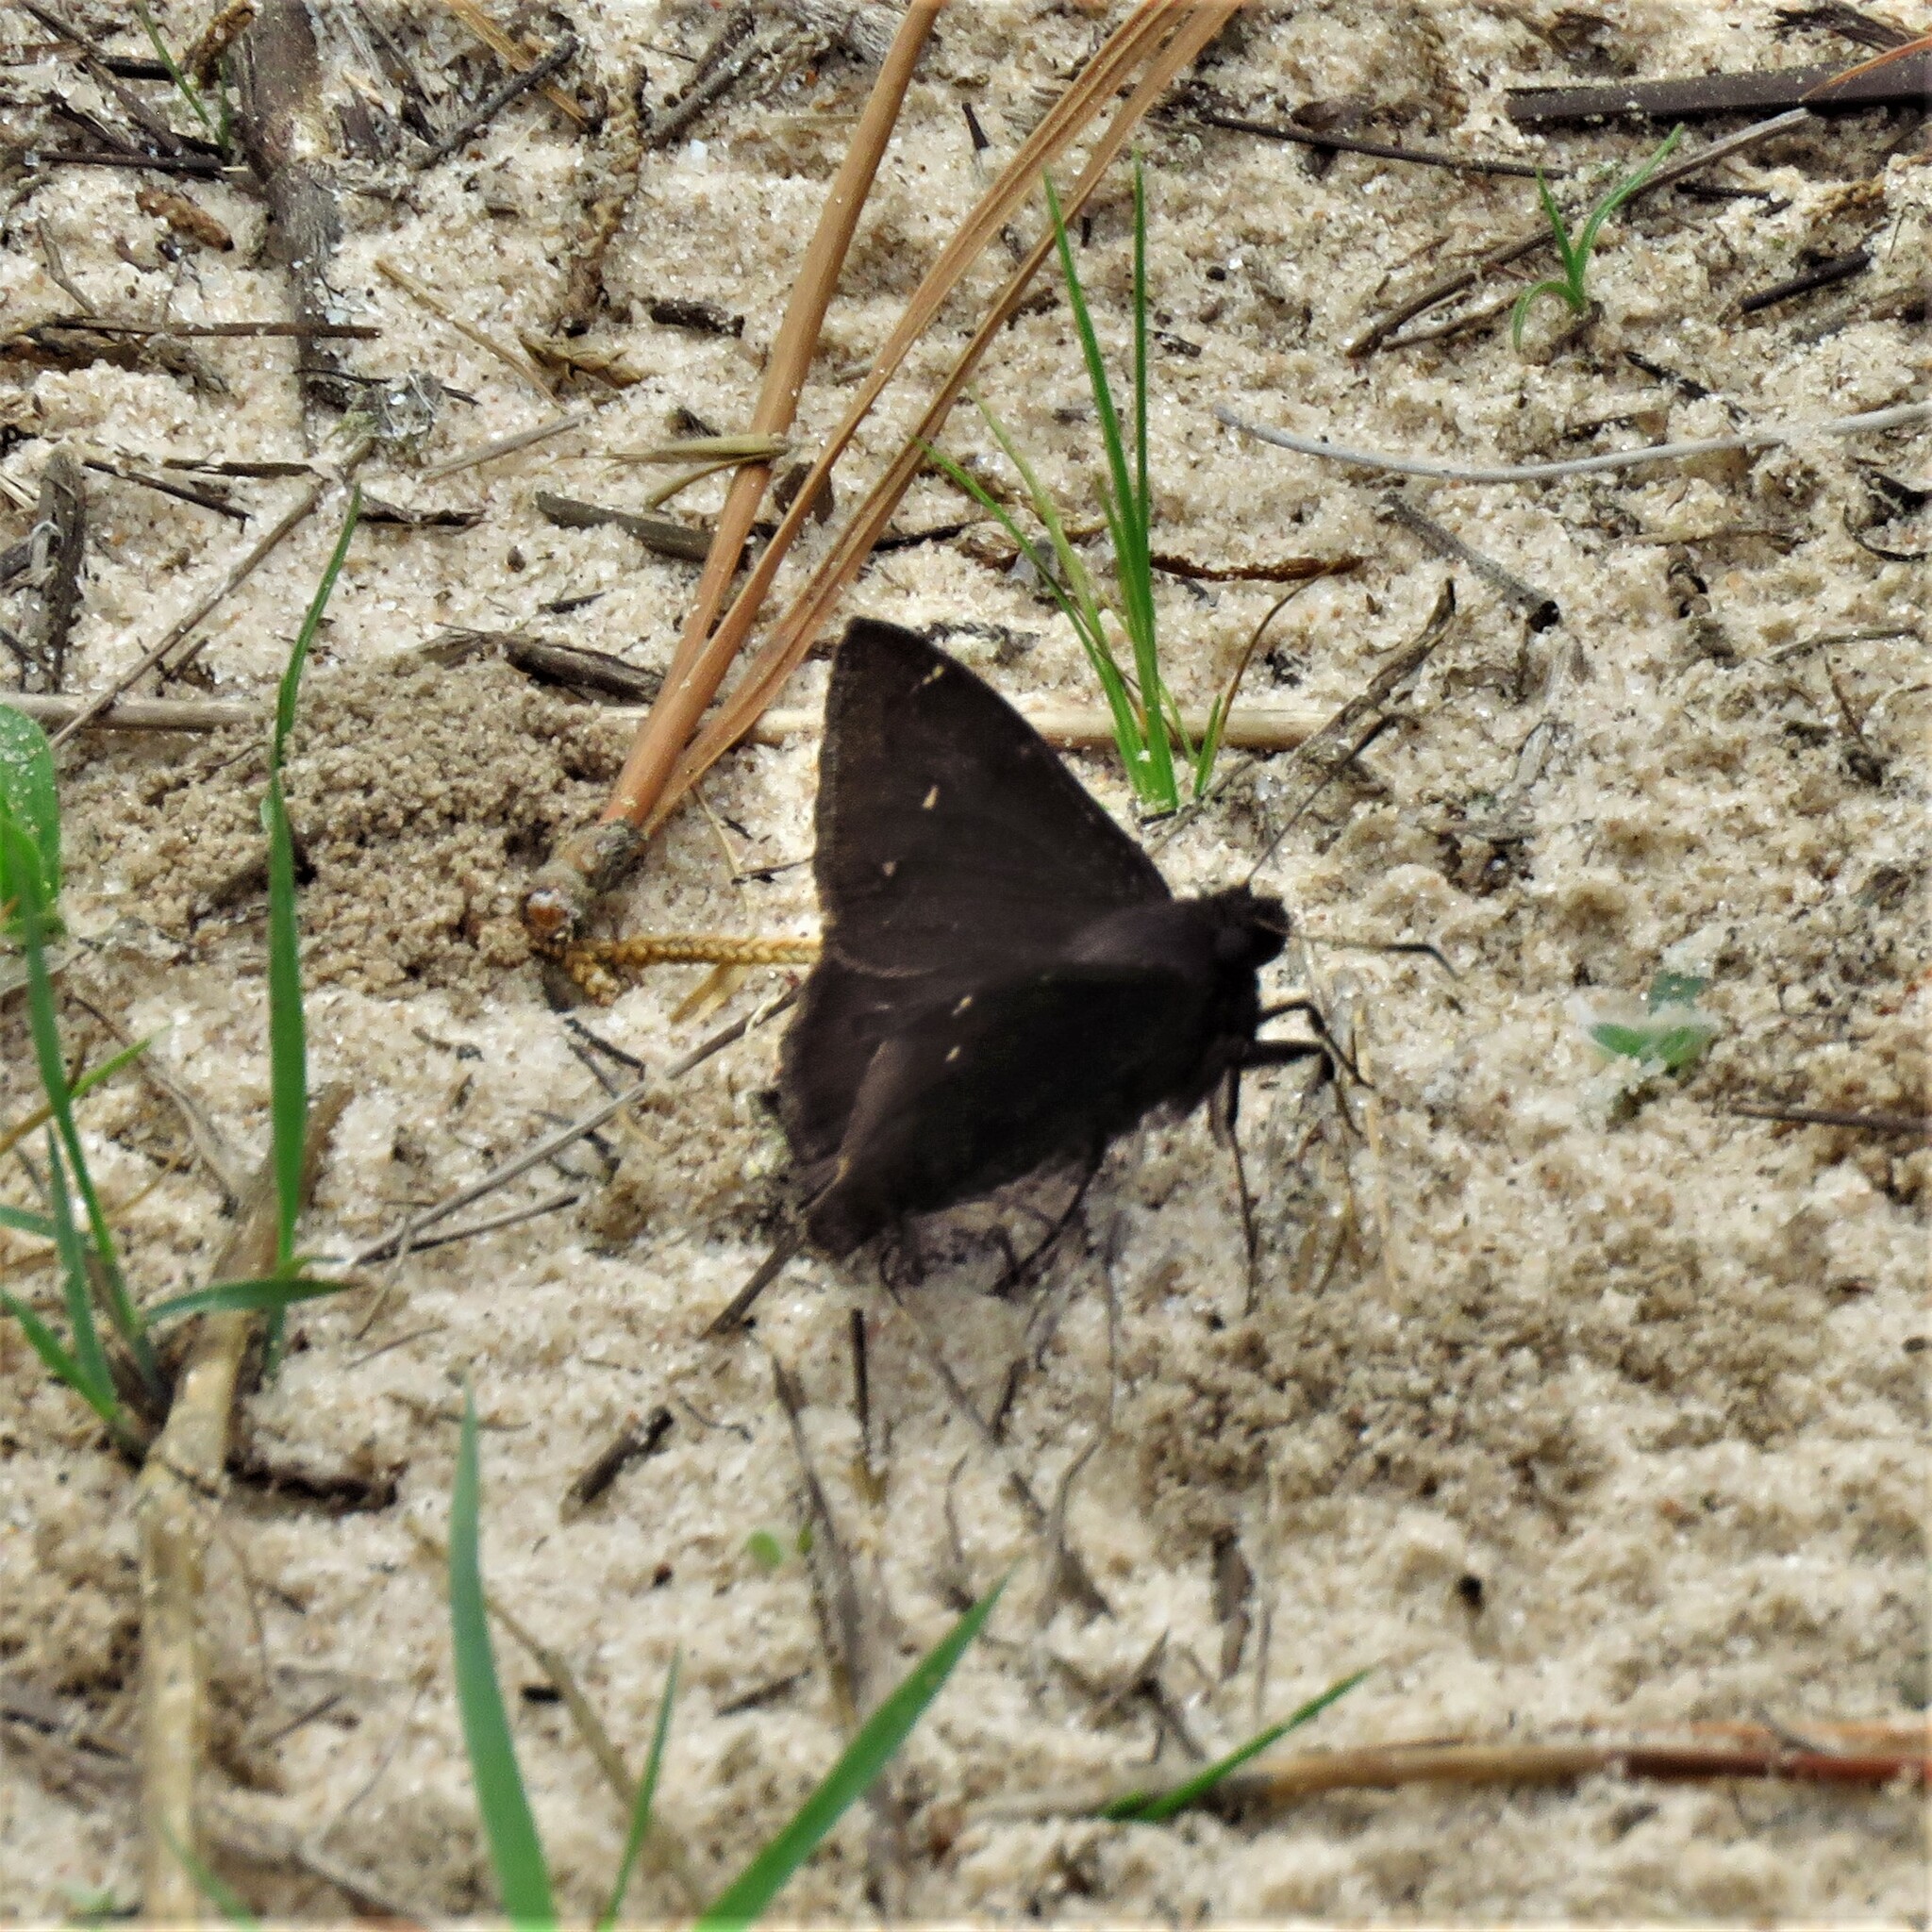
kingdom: Animalia
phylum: Arthropoda
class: Insecta
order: Lepidoptera
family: Hesperiidae
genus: Thorybes
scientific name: Thorybes pylades
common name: Northern cloudywing
